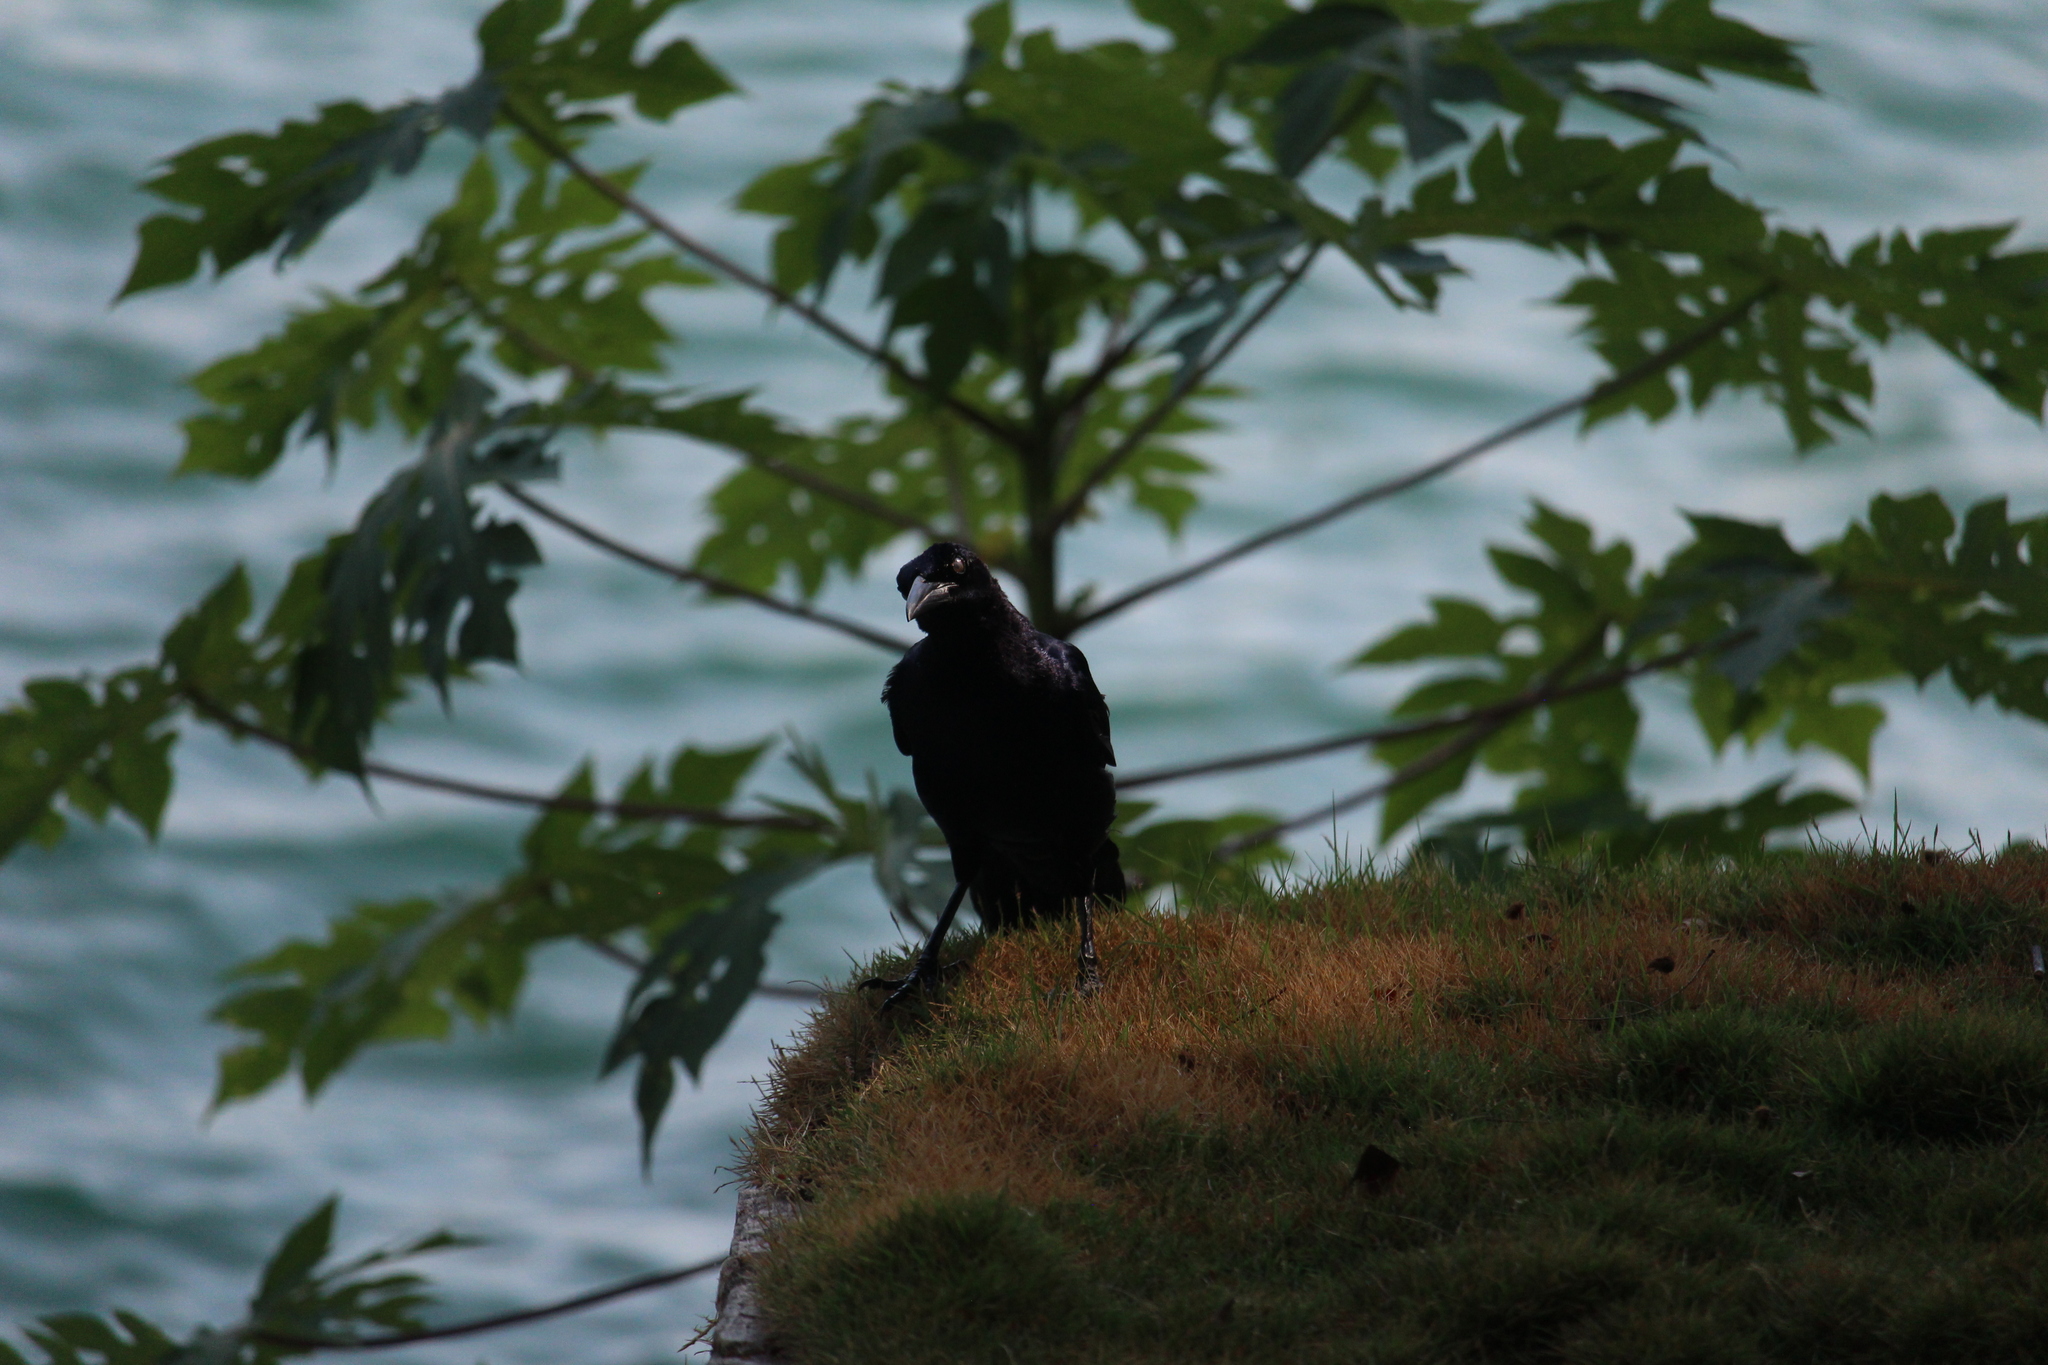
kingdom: Animalia
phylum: Chordata
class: Aves
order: Passeriformes
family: Icteridae
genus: Quiscalus
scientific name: Quiscalus mexicanus
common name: Great-tailed grackle
